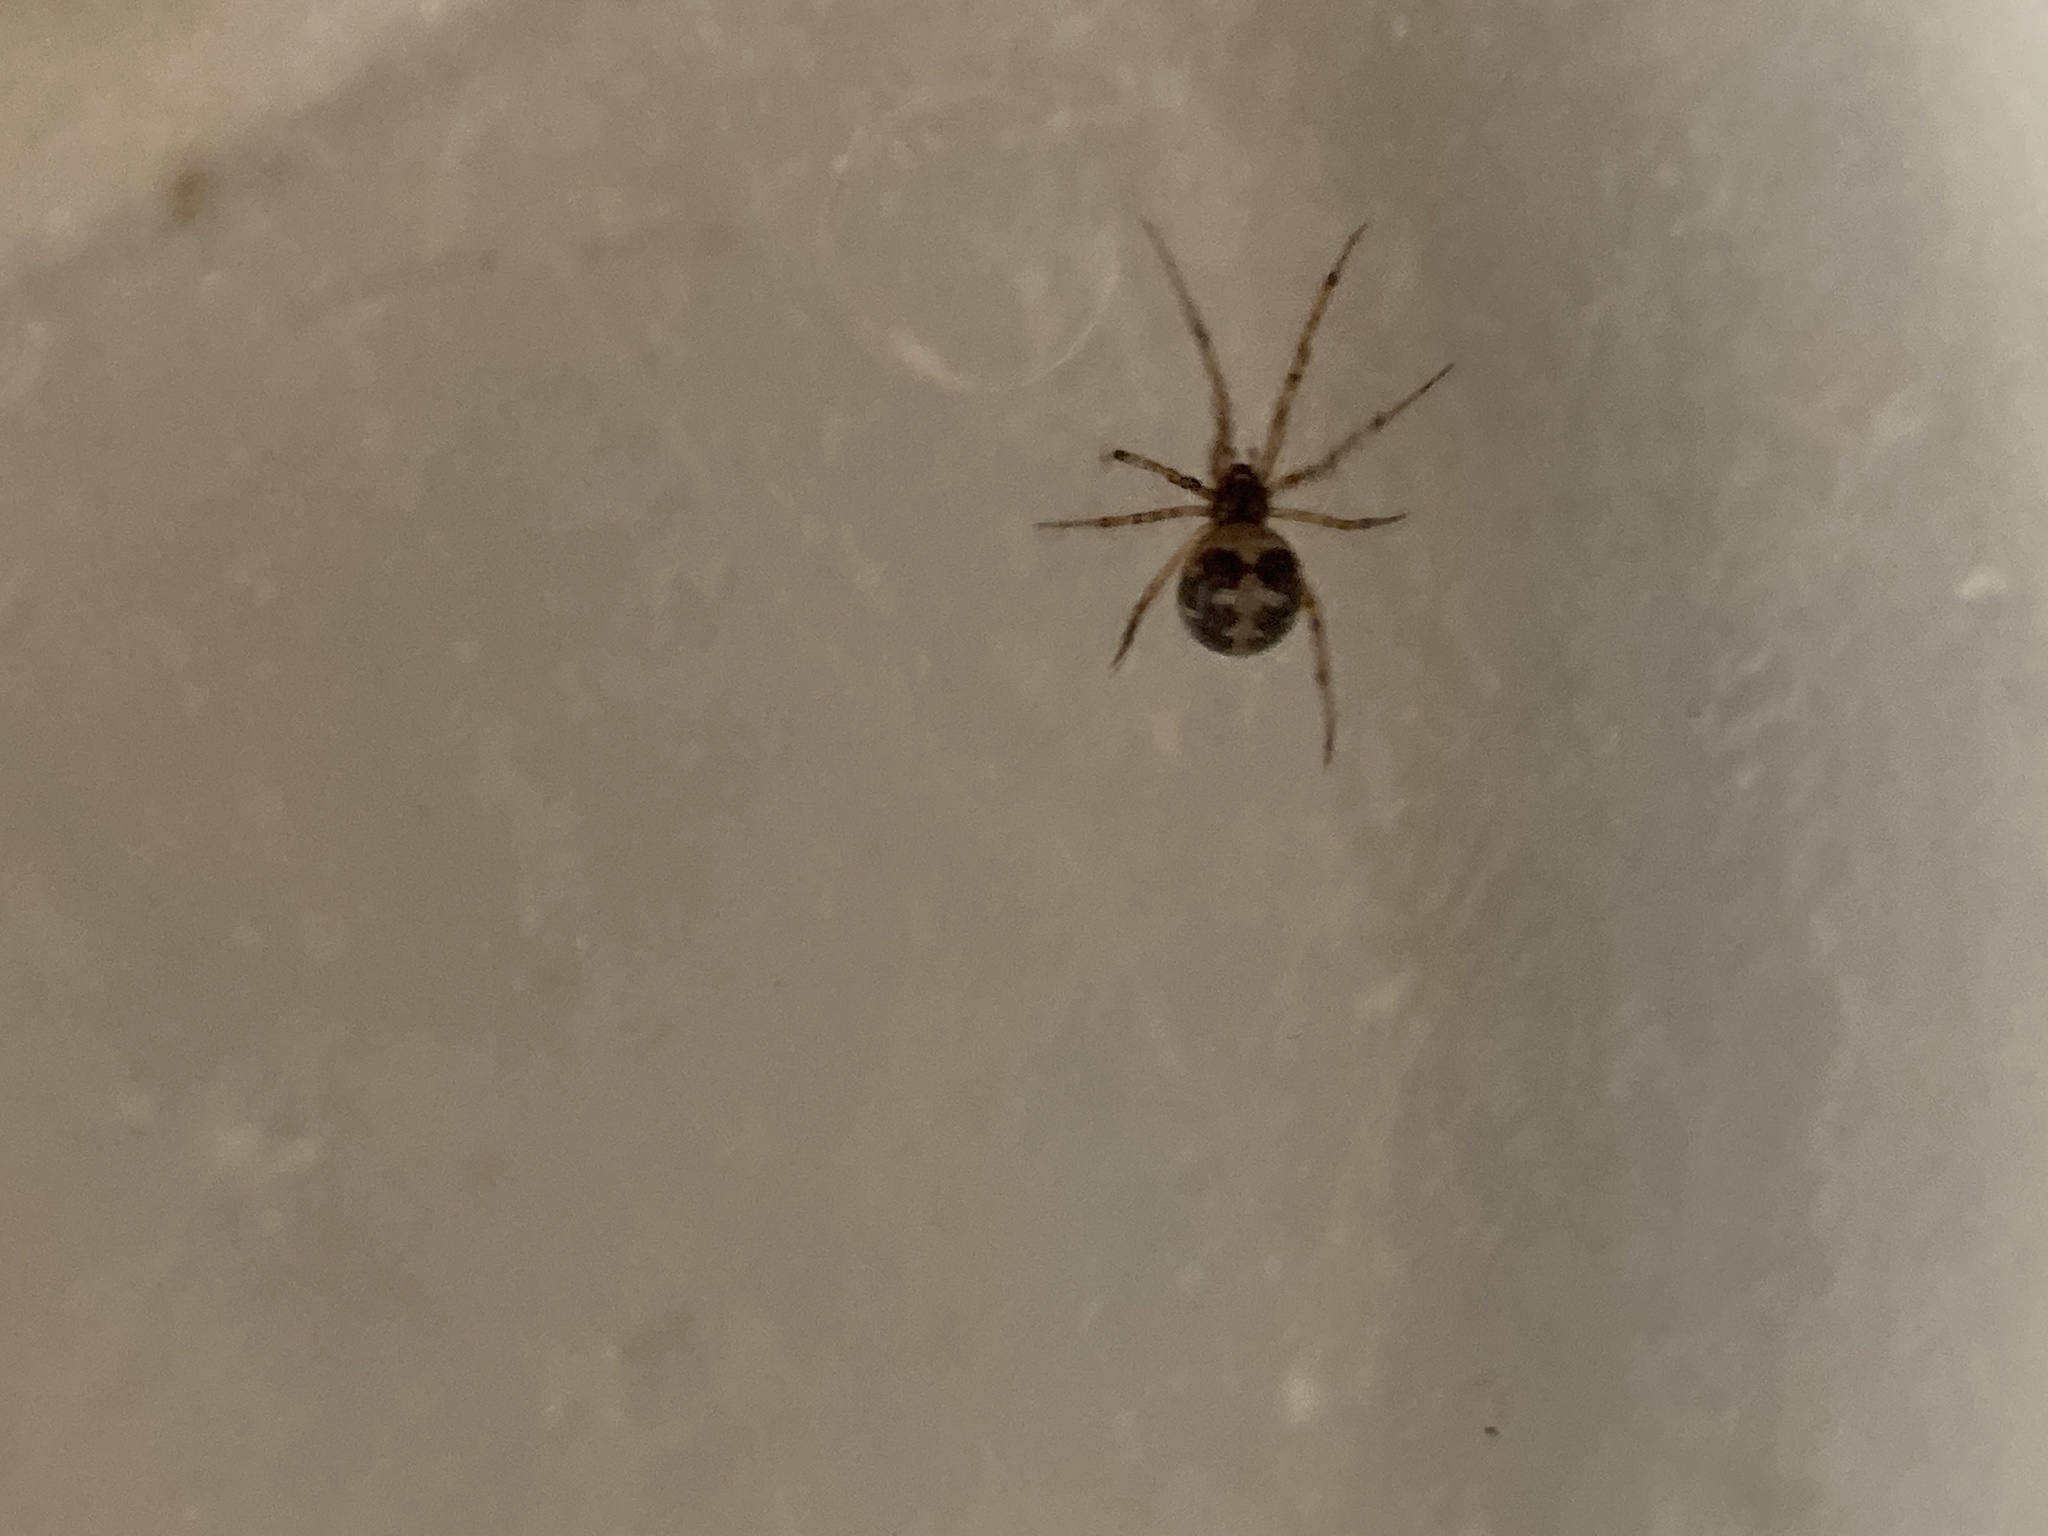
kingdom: Animalia
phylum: Arthropoda
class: Arachnida
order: Araneae
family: Theridiidae
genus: Steatoda
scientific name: Steatoda triangulosa
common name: Triangulate bud spider
